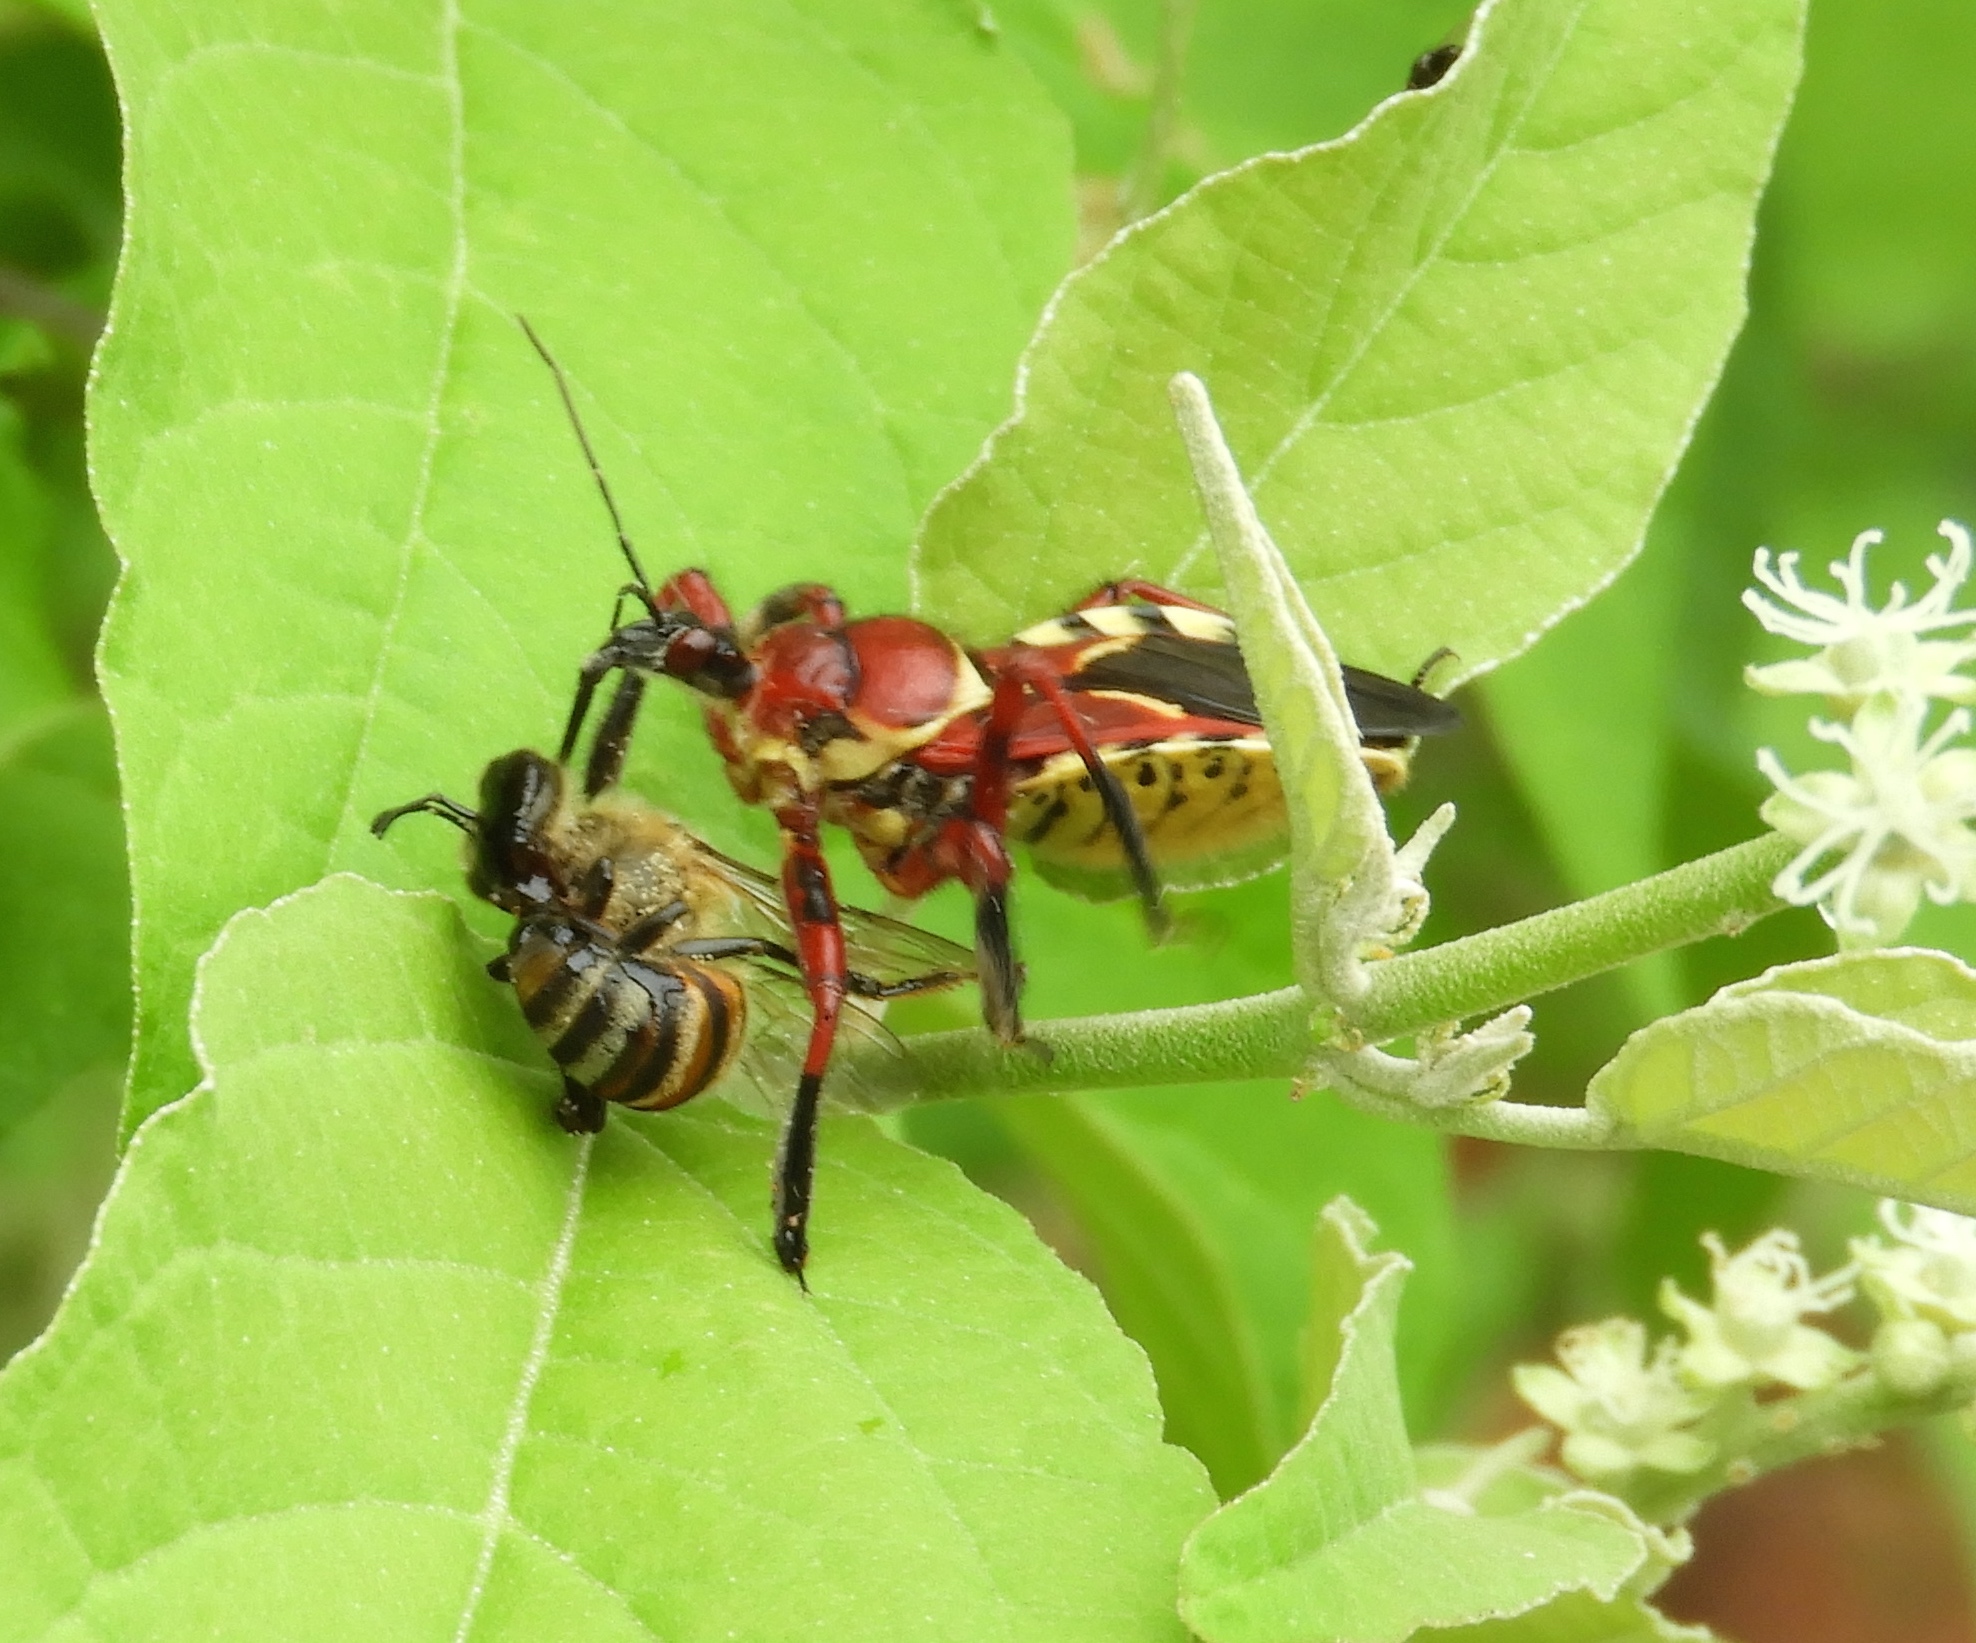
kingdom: Animalia
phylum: Arthropoda
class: Insecta
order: Hemiptera
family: Reduviidae
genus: Apiomerus
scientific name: Apiomerus flaviventris
